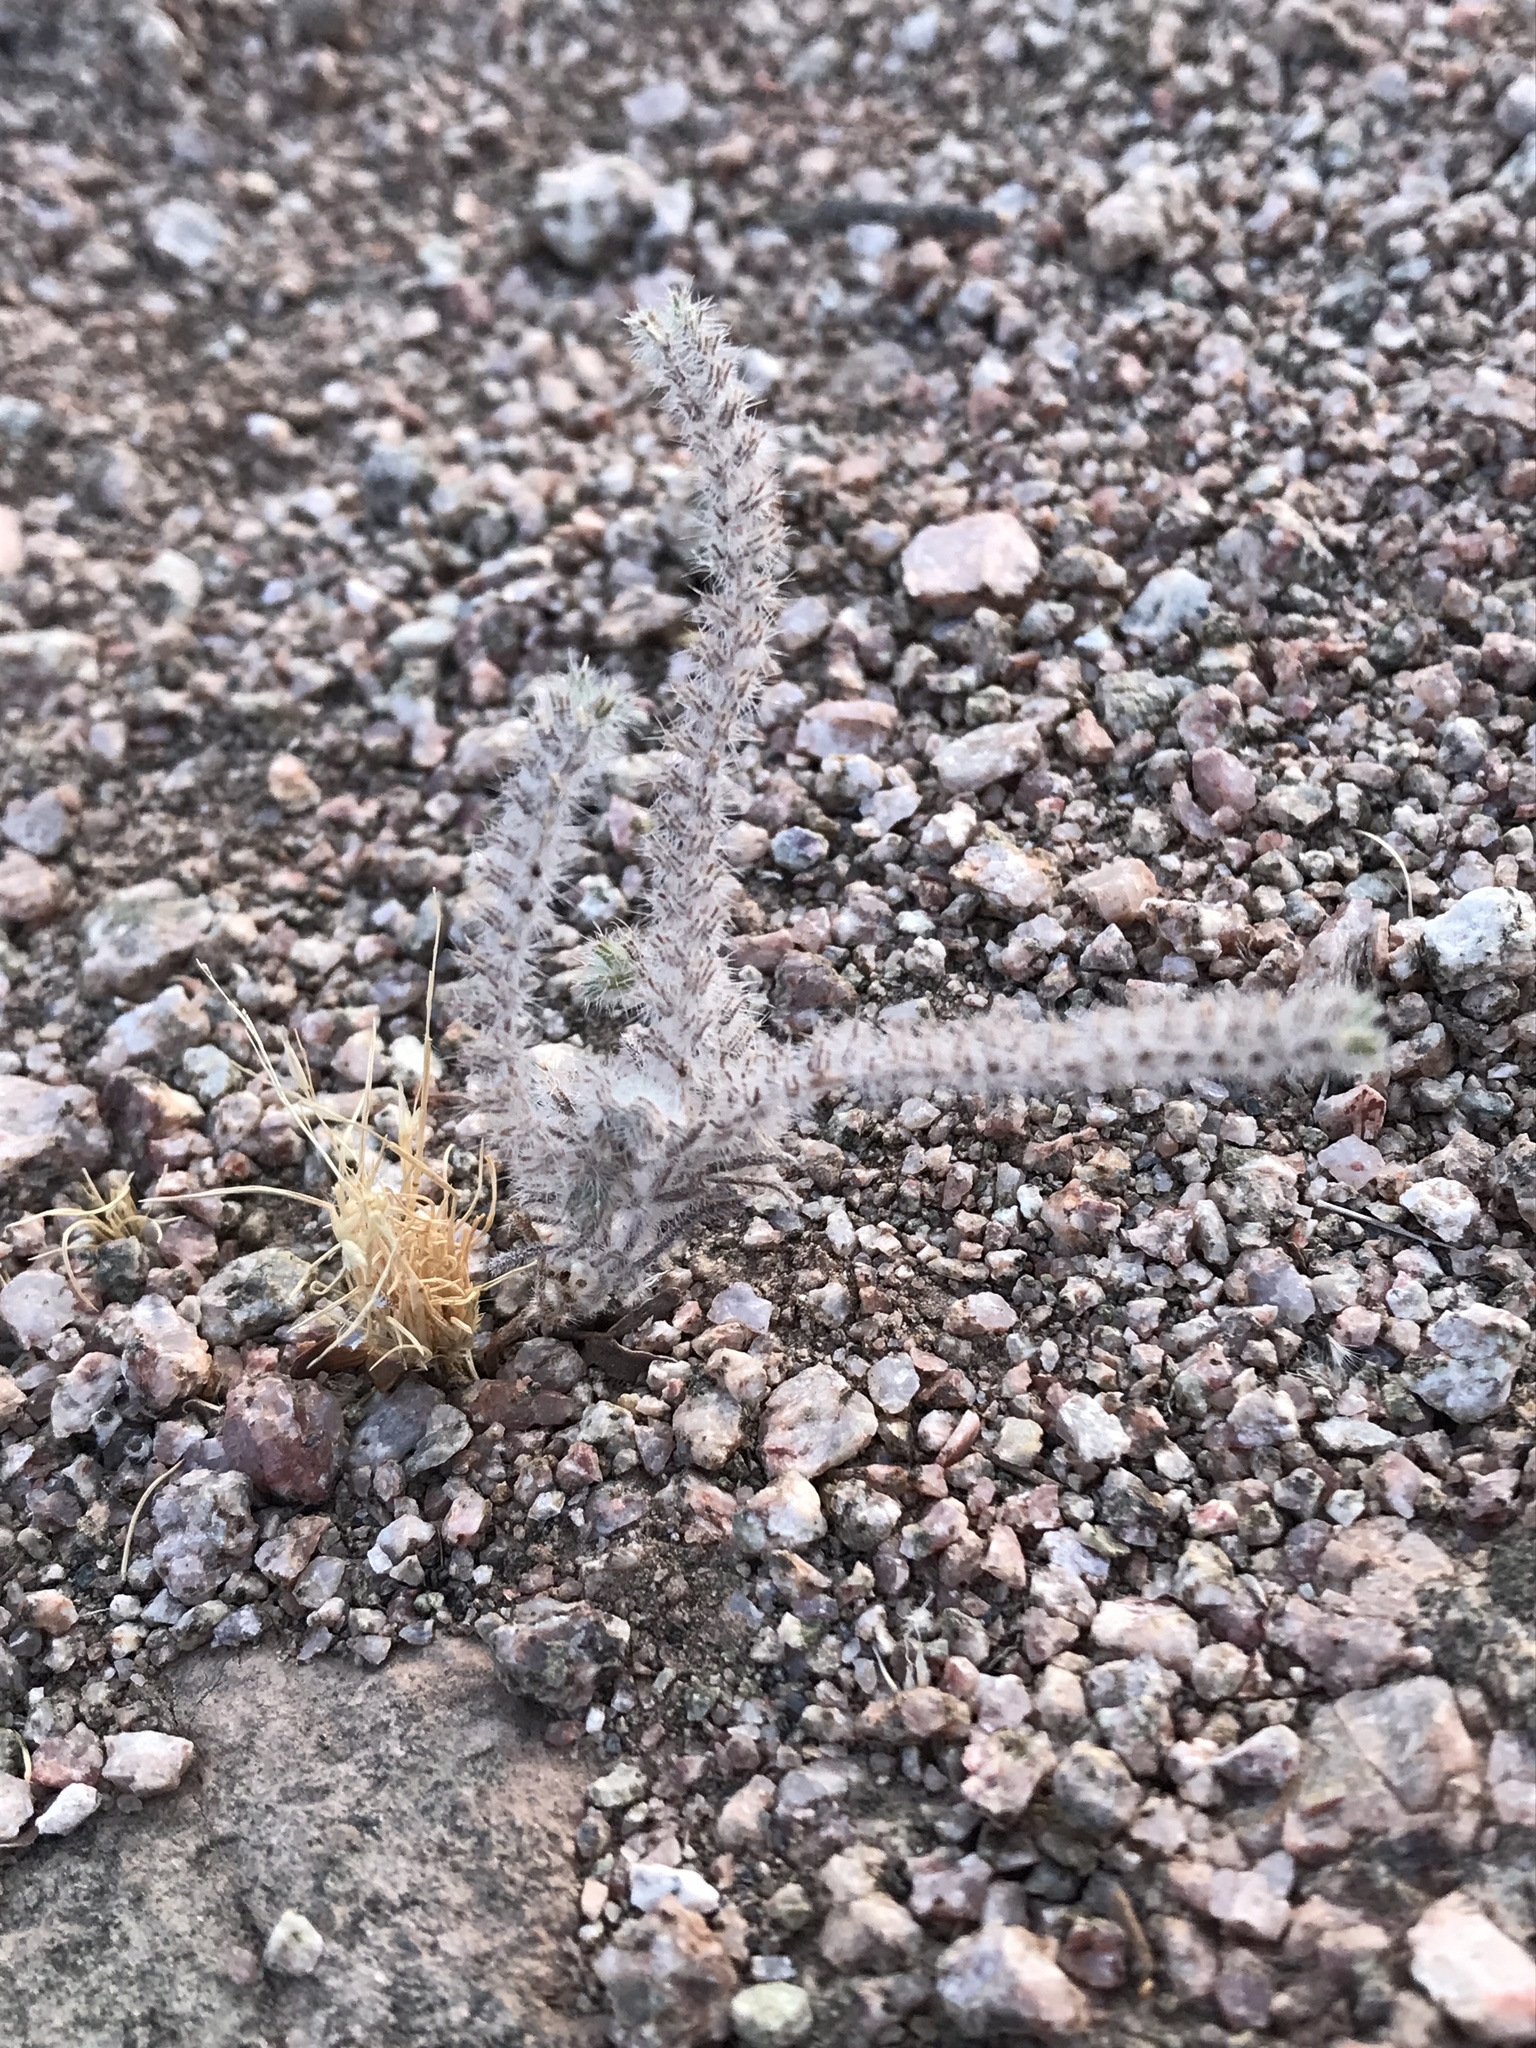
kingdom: Plantae
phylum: Tracheophyta
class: Magnoliopsida
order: Boraginales
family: Boraginaceae
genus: Johnstonella
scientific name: Johnstonella angustifolia
